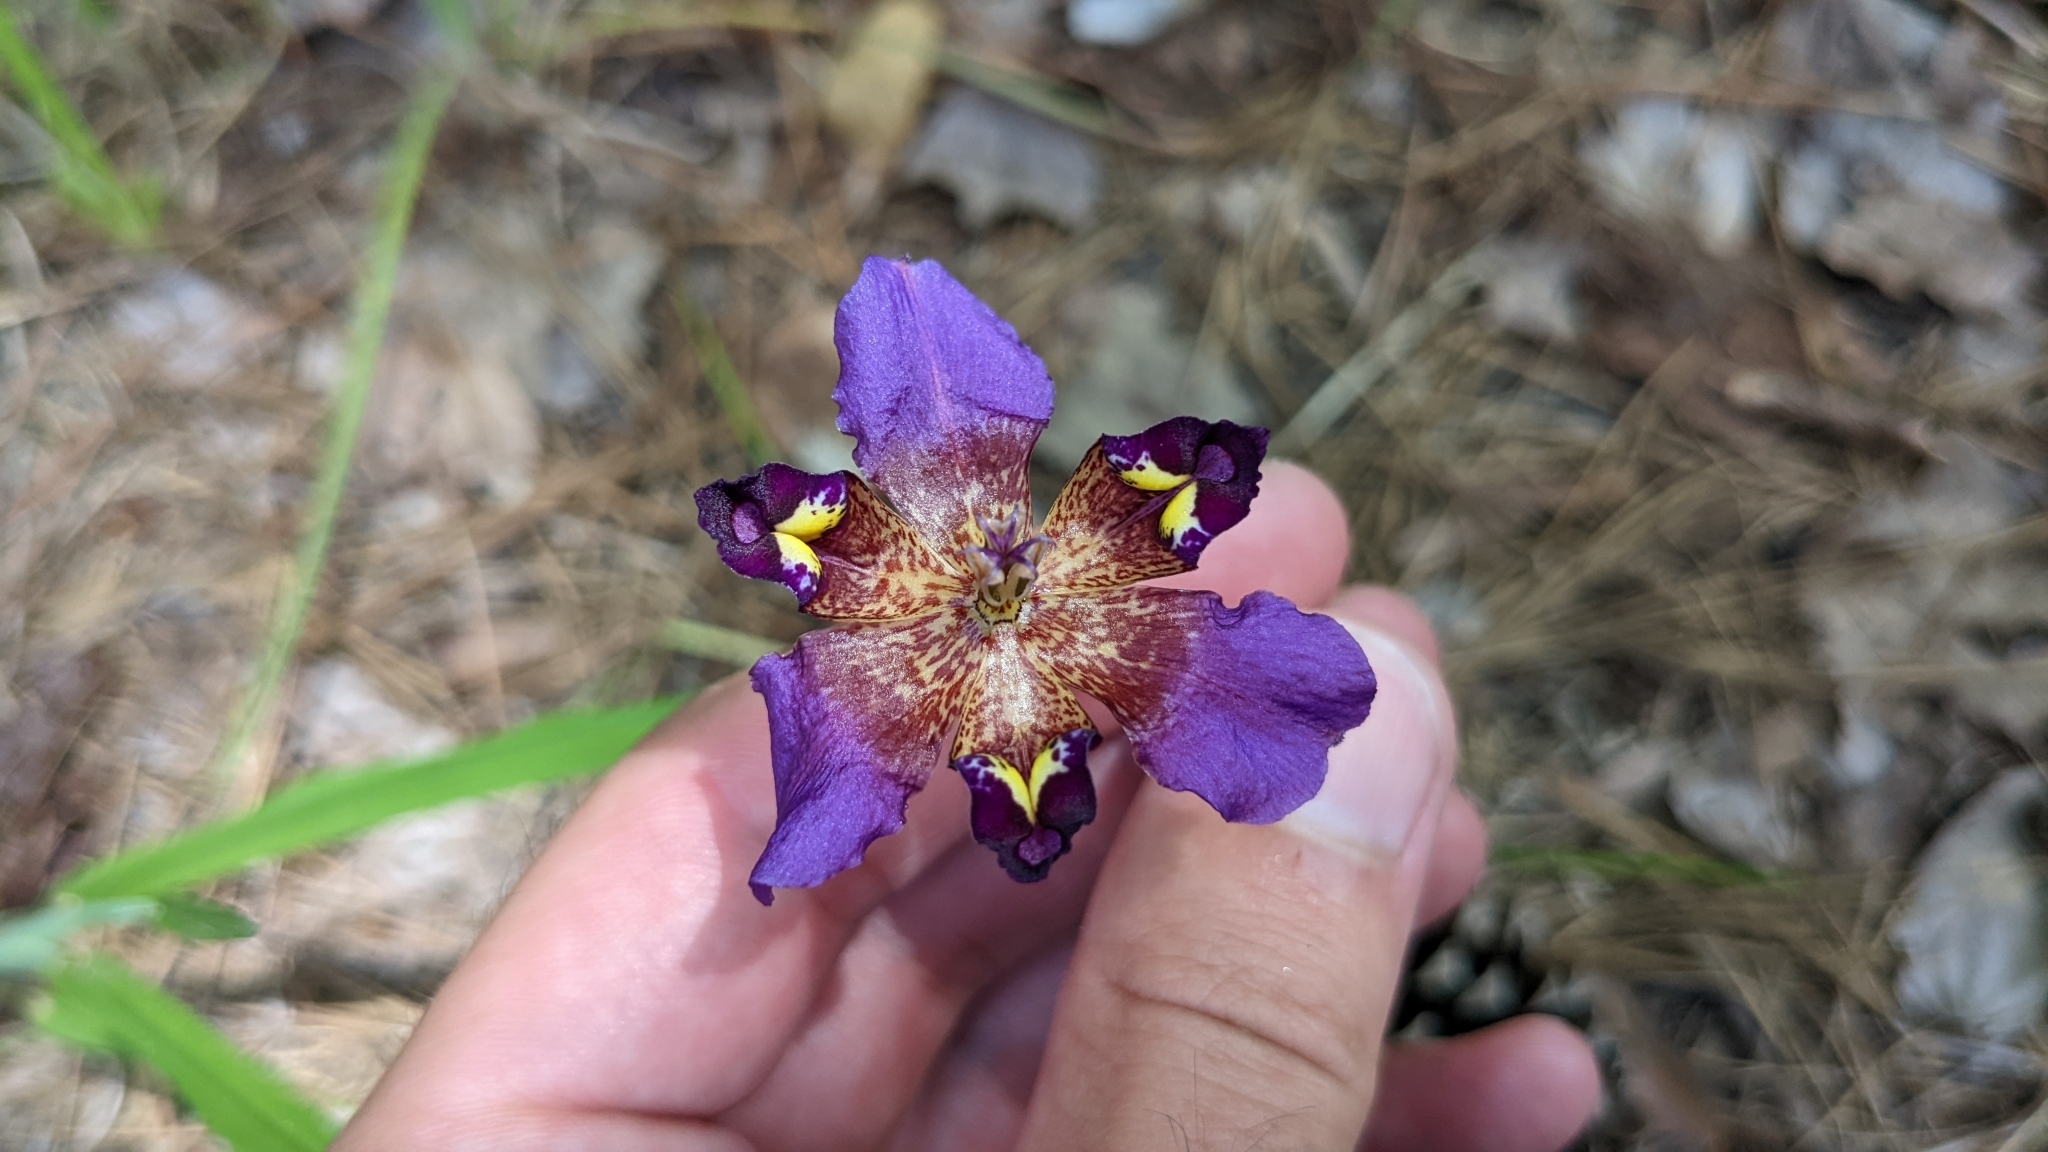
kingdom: Plantae
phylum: Tracheophyta
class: Liliopsida
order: Asparagales
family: Iridaceae
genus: Alophia
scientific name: Alophia drummondii
